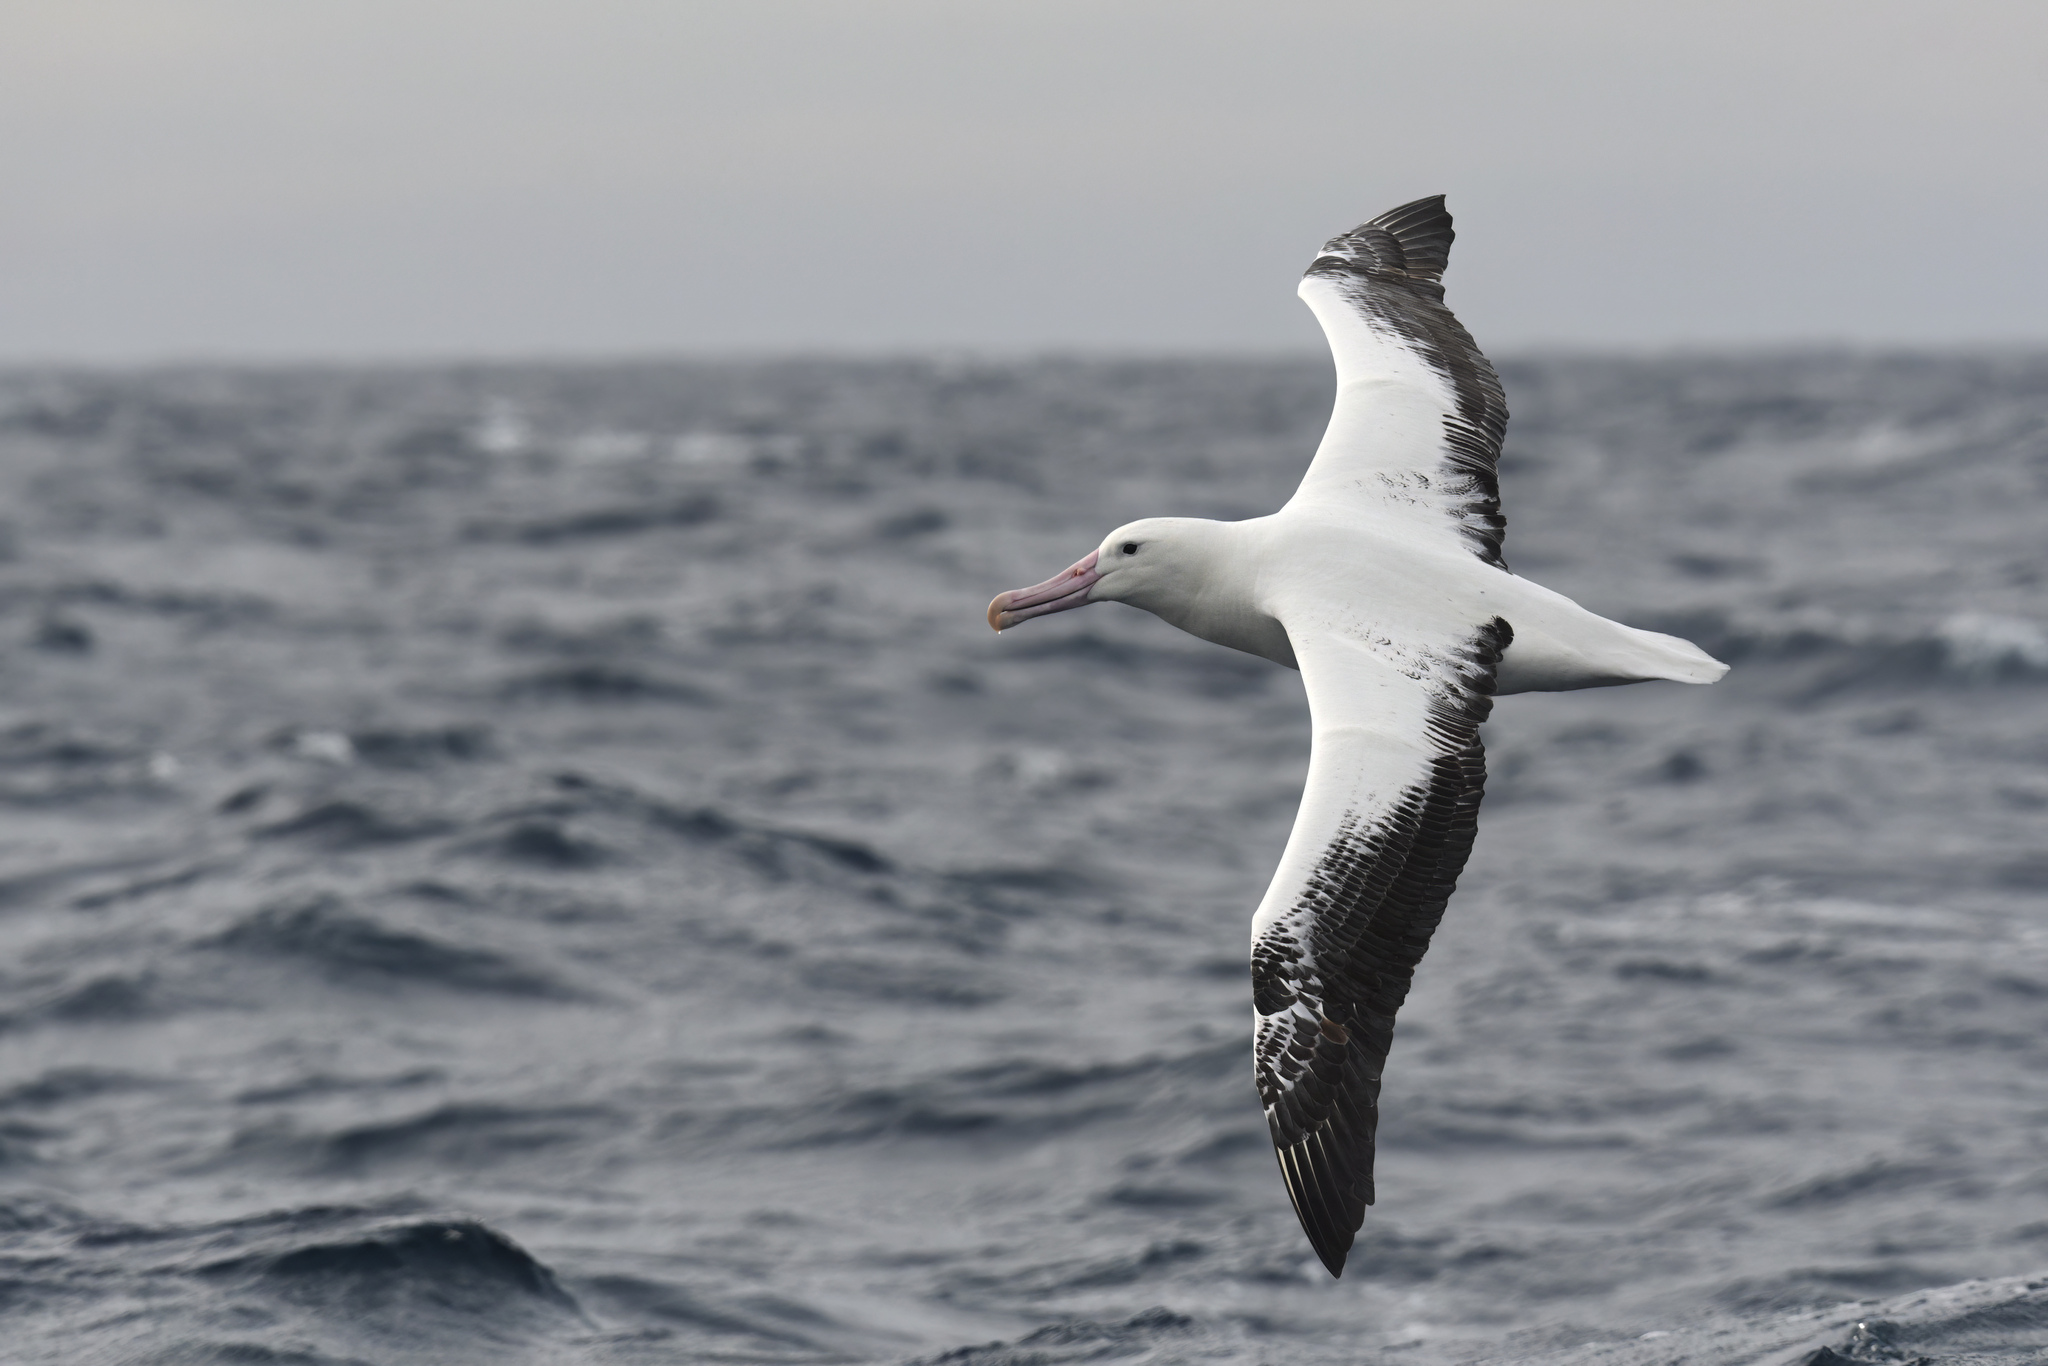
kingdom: Animalia
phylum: Chordata
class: Aves
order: Procellariiformes
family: Diomedeidae
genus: Diomedea
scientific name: Diomedea epomophora
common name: Southern royal albatross
